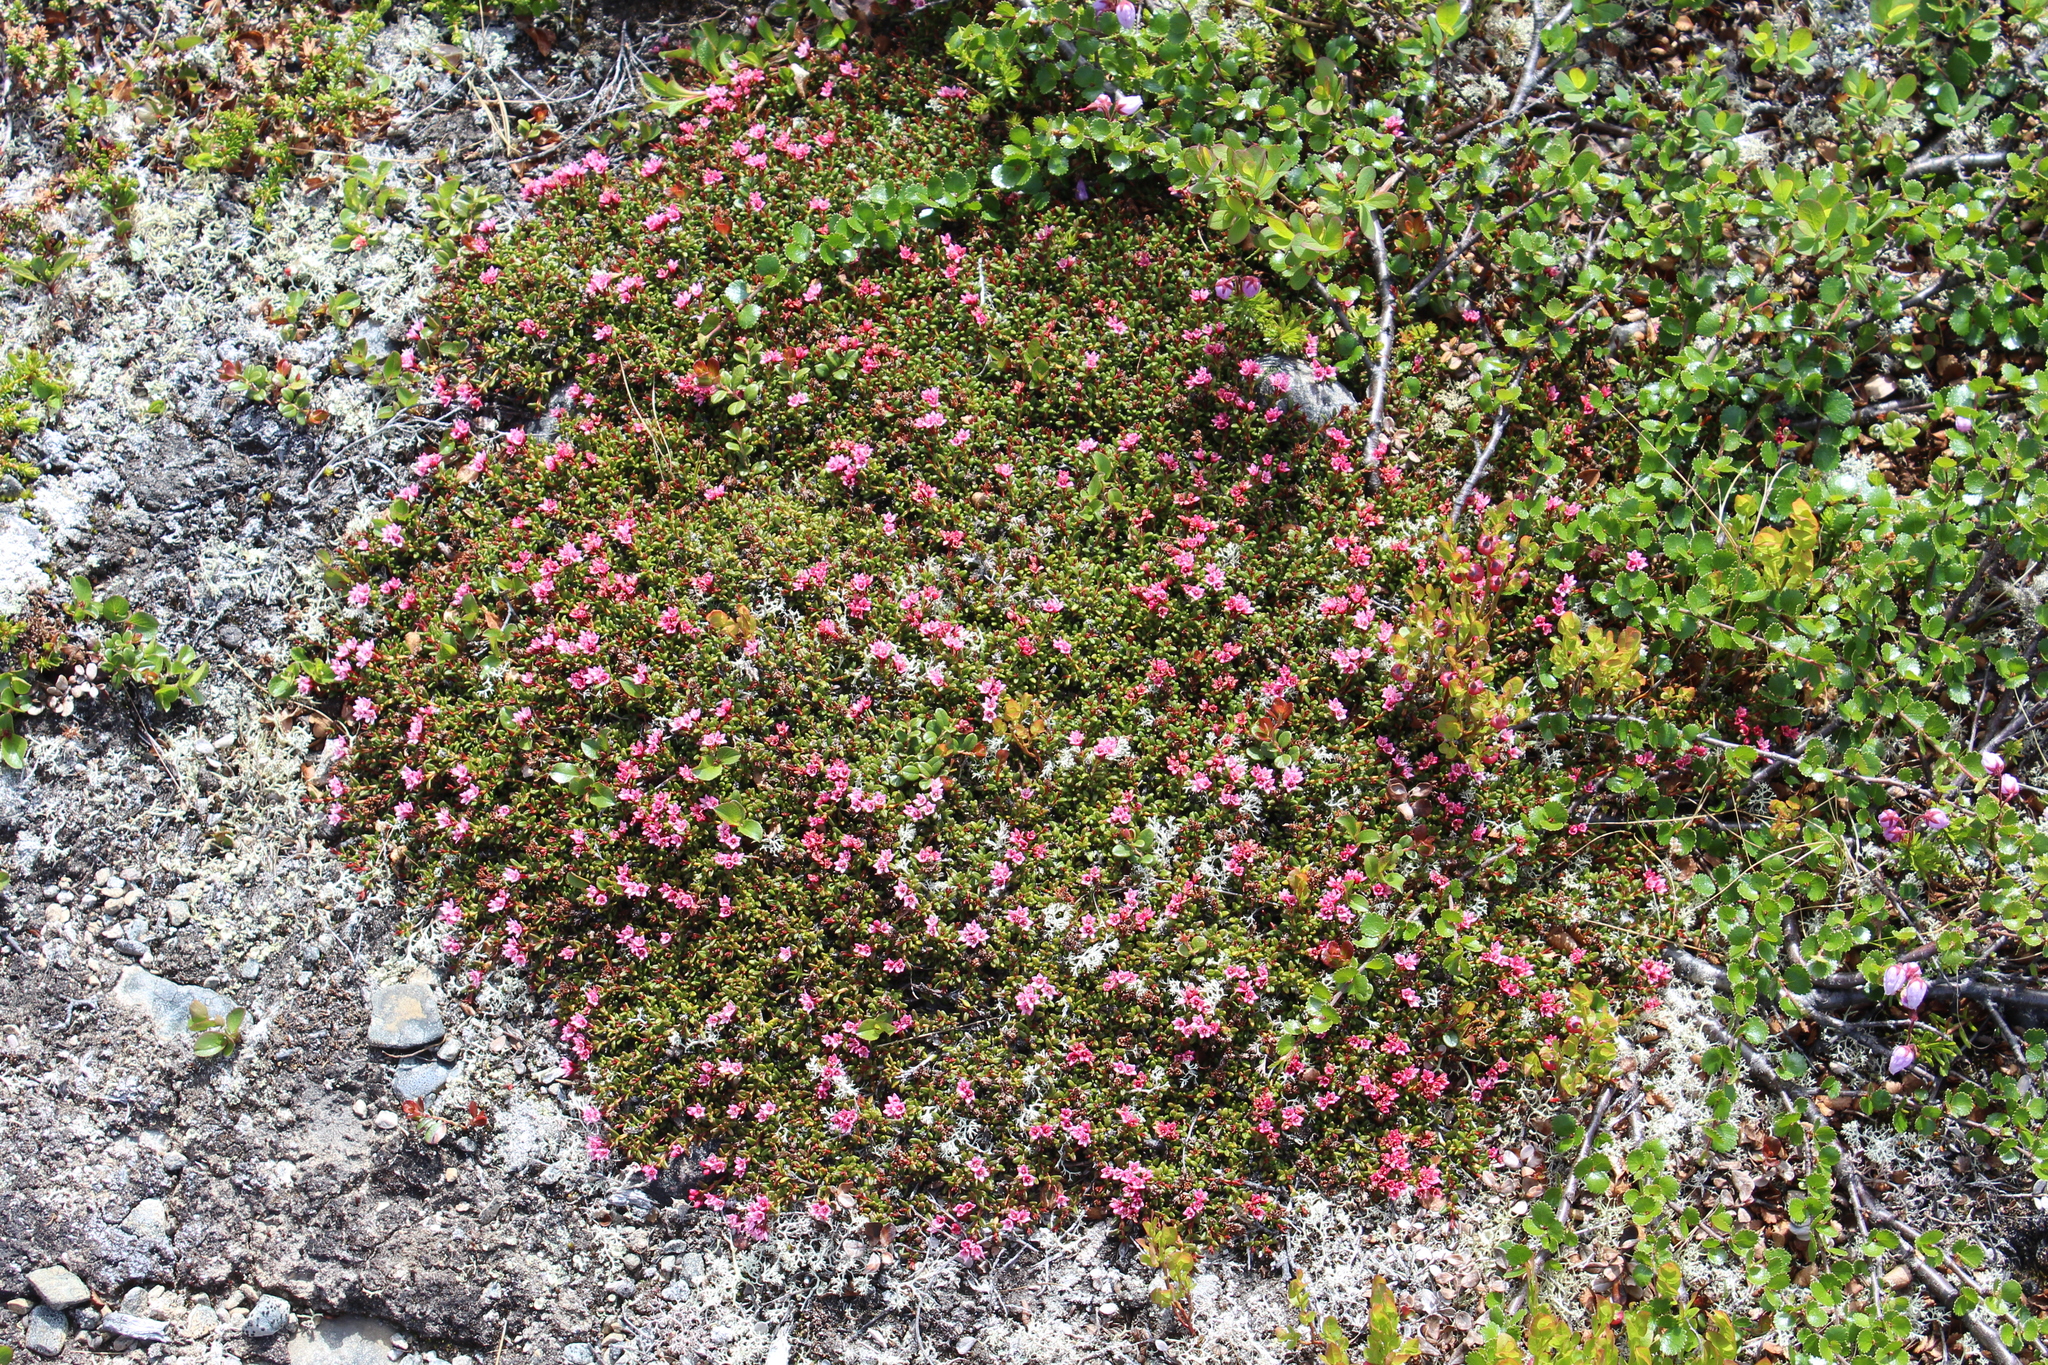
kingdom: Plantae
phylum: Tracheophyta
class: Magnoliopsida
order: Ericales
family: Ericaceae
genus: Kalmia
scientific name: Kalmia procumbens
